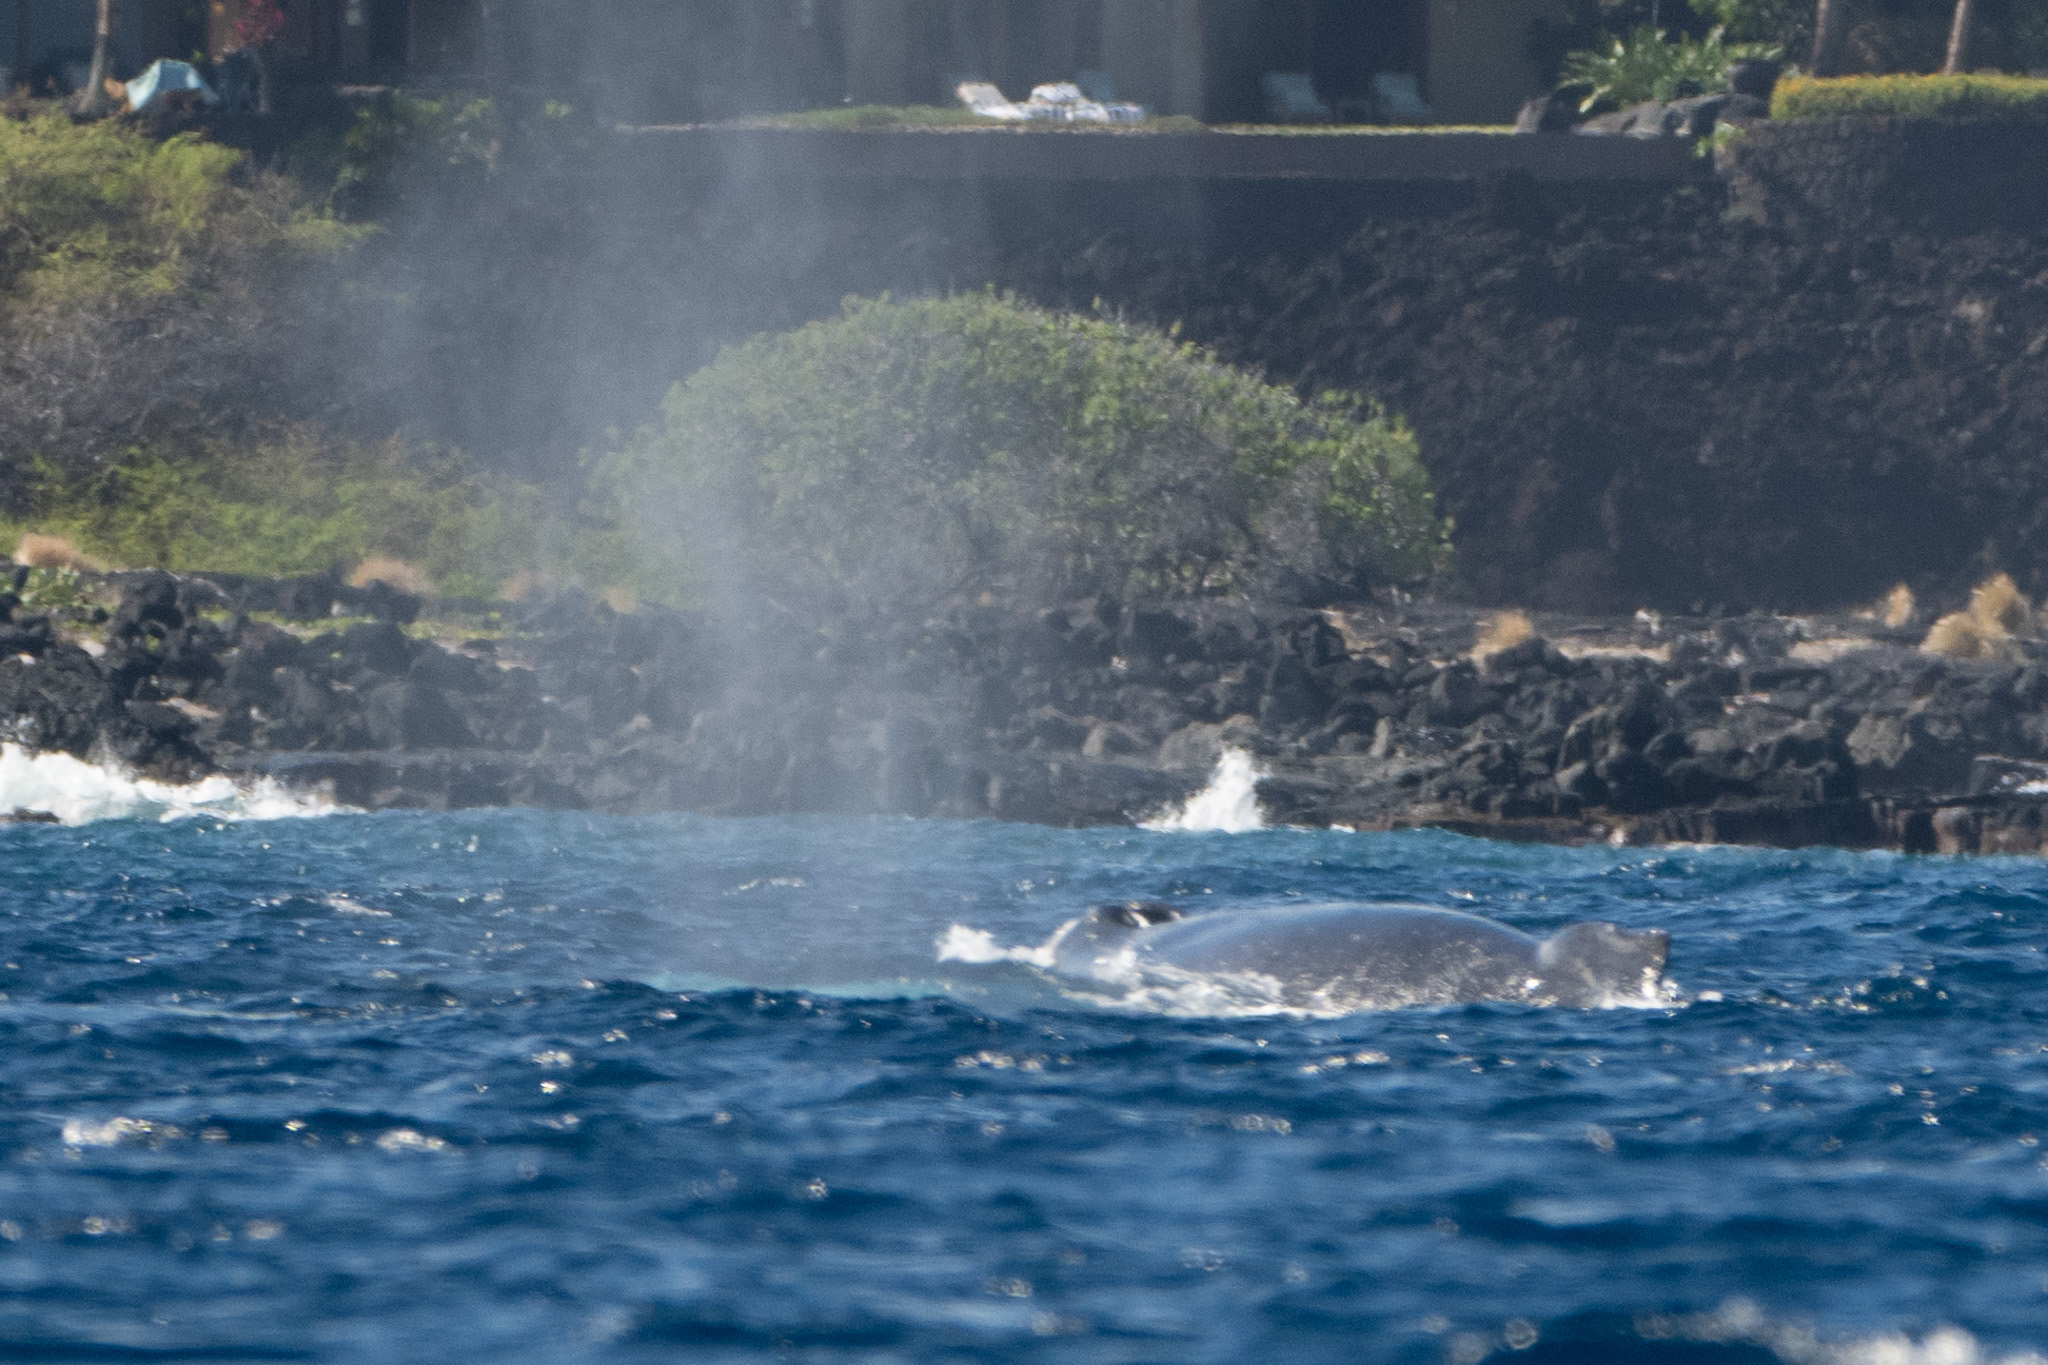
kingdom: Animalia
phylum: Chordata
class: Mammalia
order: Cetacea
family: Balaenopteridae
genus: Megaptera
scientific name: Megaptera novaeangliae
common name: Humpback whale
